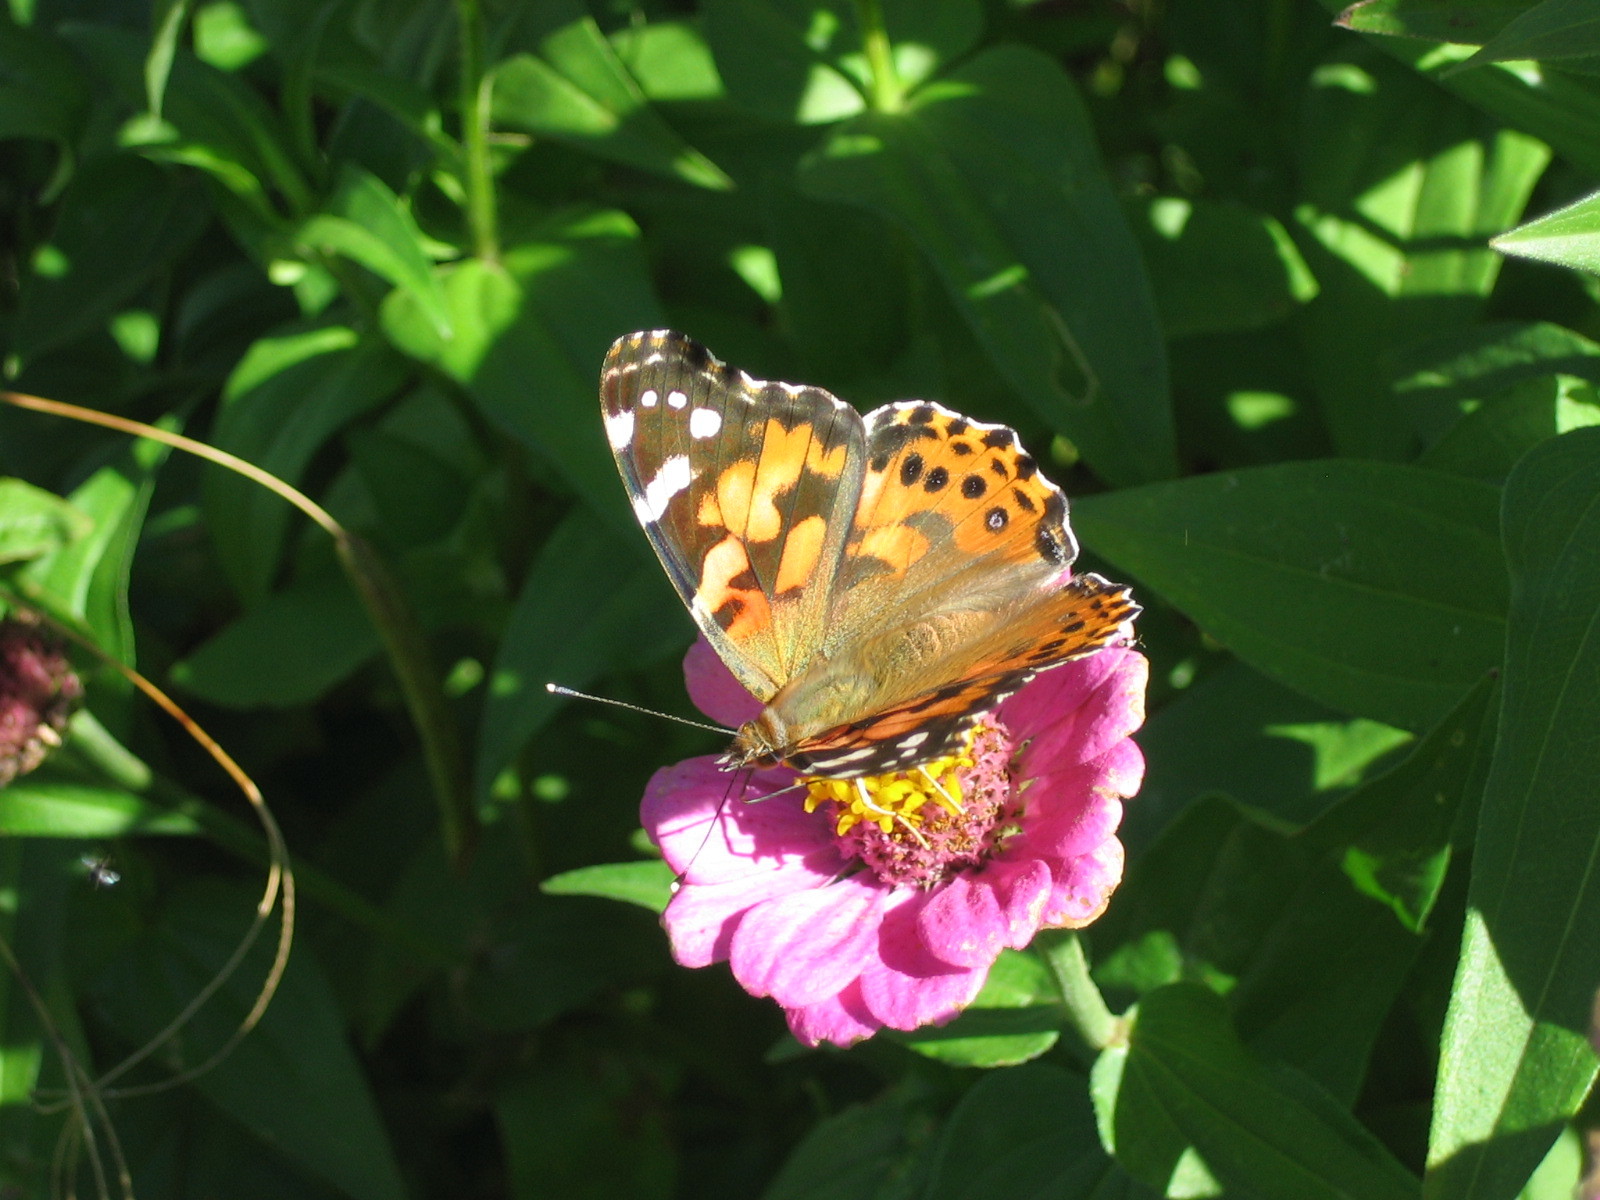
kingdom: Animalia
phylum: Arthropoda
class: Insecta
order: Lepidoptera
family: Nymphalidae
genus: Vanessa
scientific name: Vanessa cardui
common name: Painted lady
